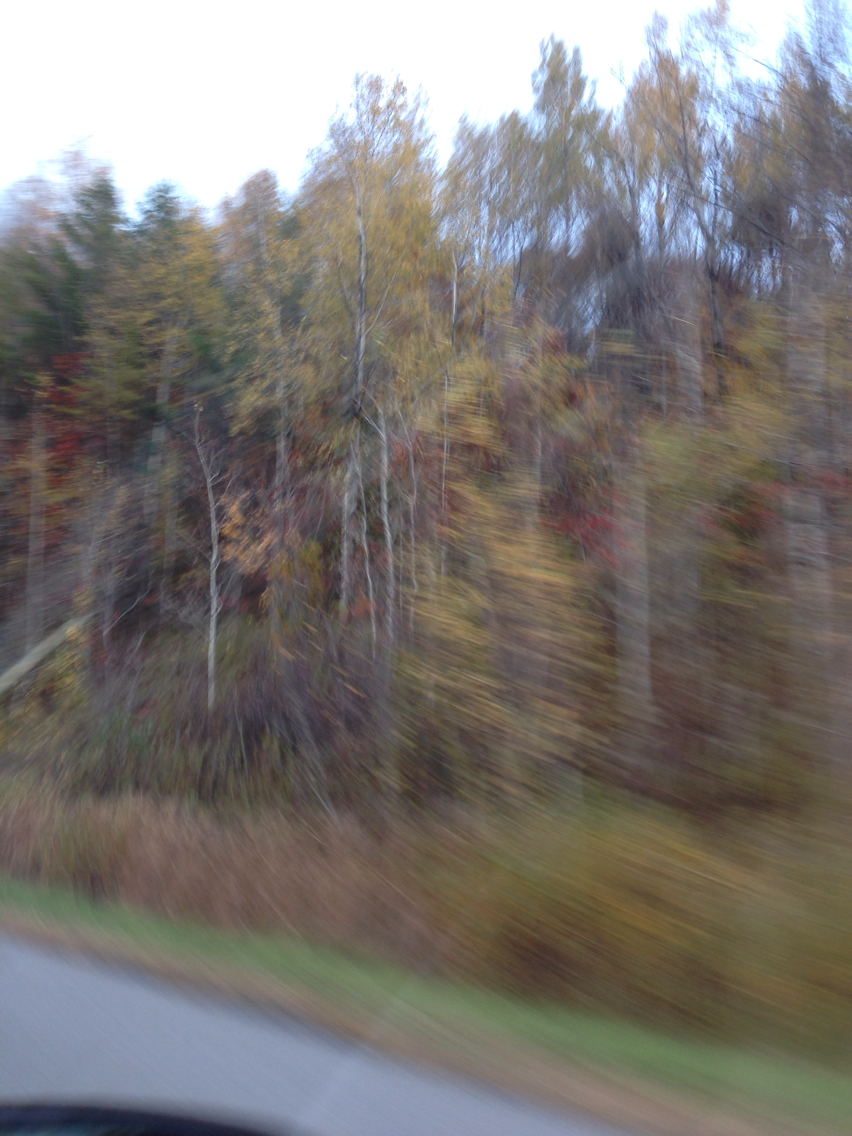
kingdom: Plantae
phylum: Tracheophyta
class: Magnoliopsida
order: Malpighiales
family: Salicaceae
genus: Populus
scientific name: Populus tremuloides
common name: Quaking aspen
